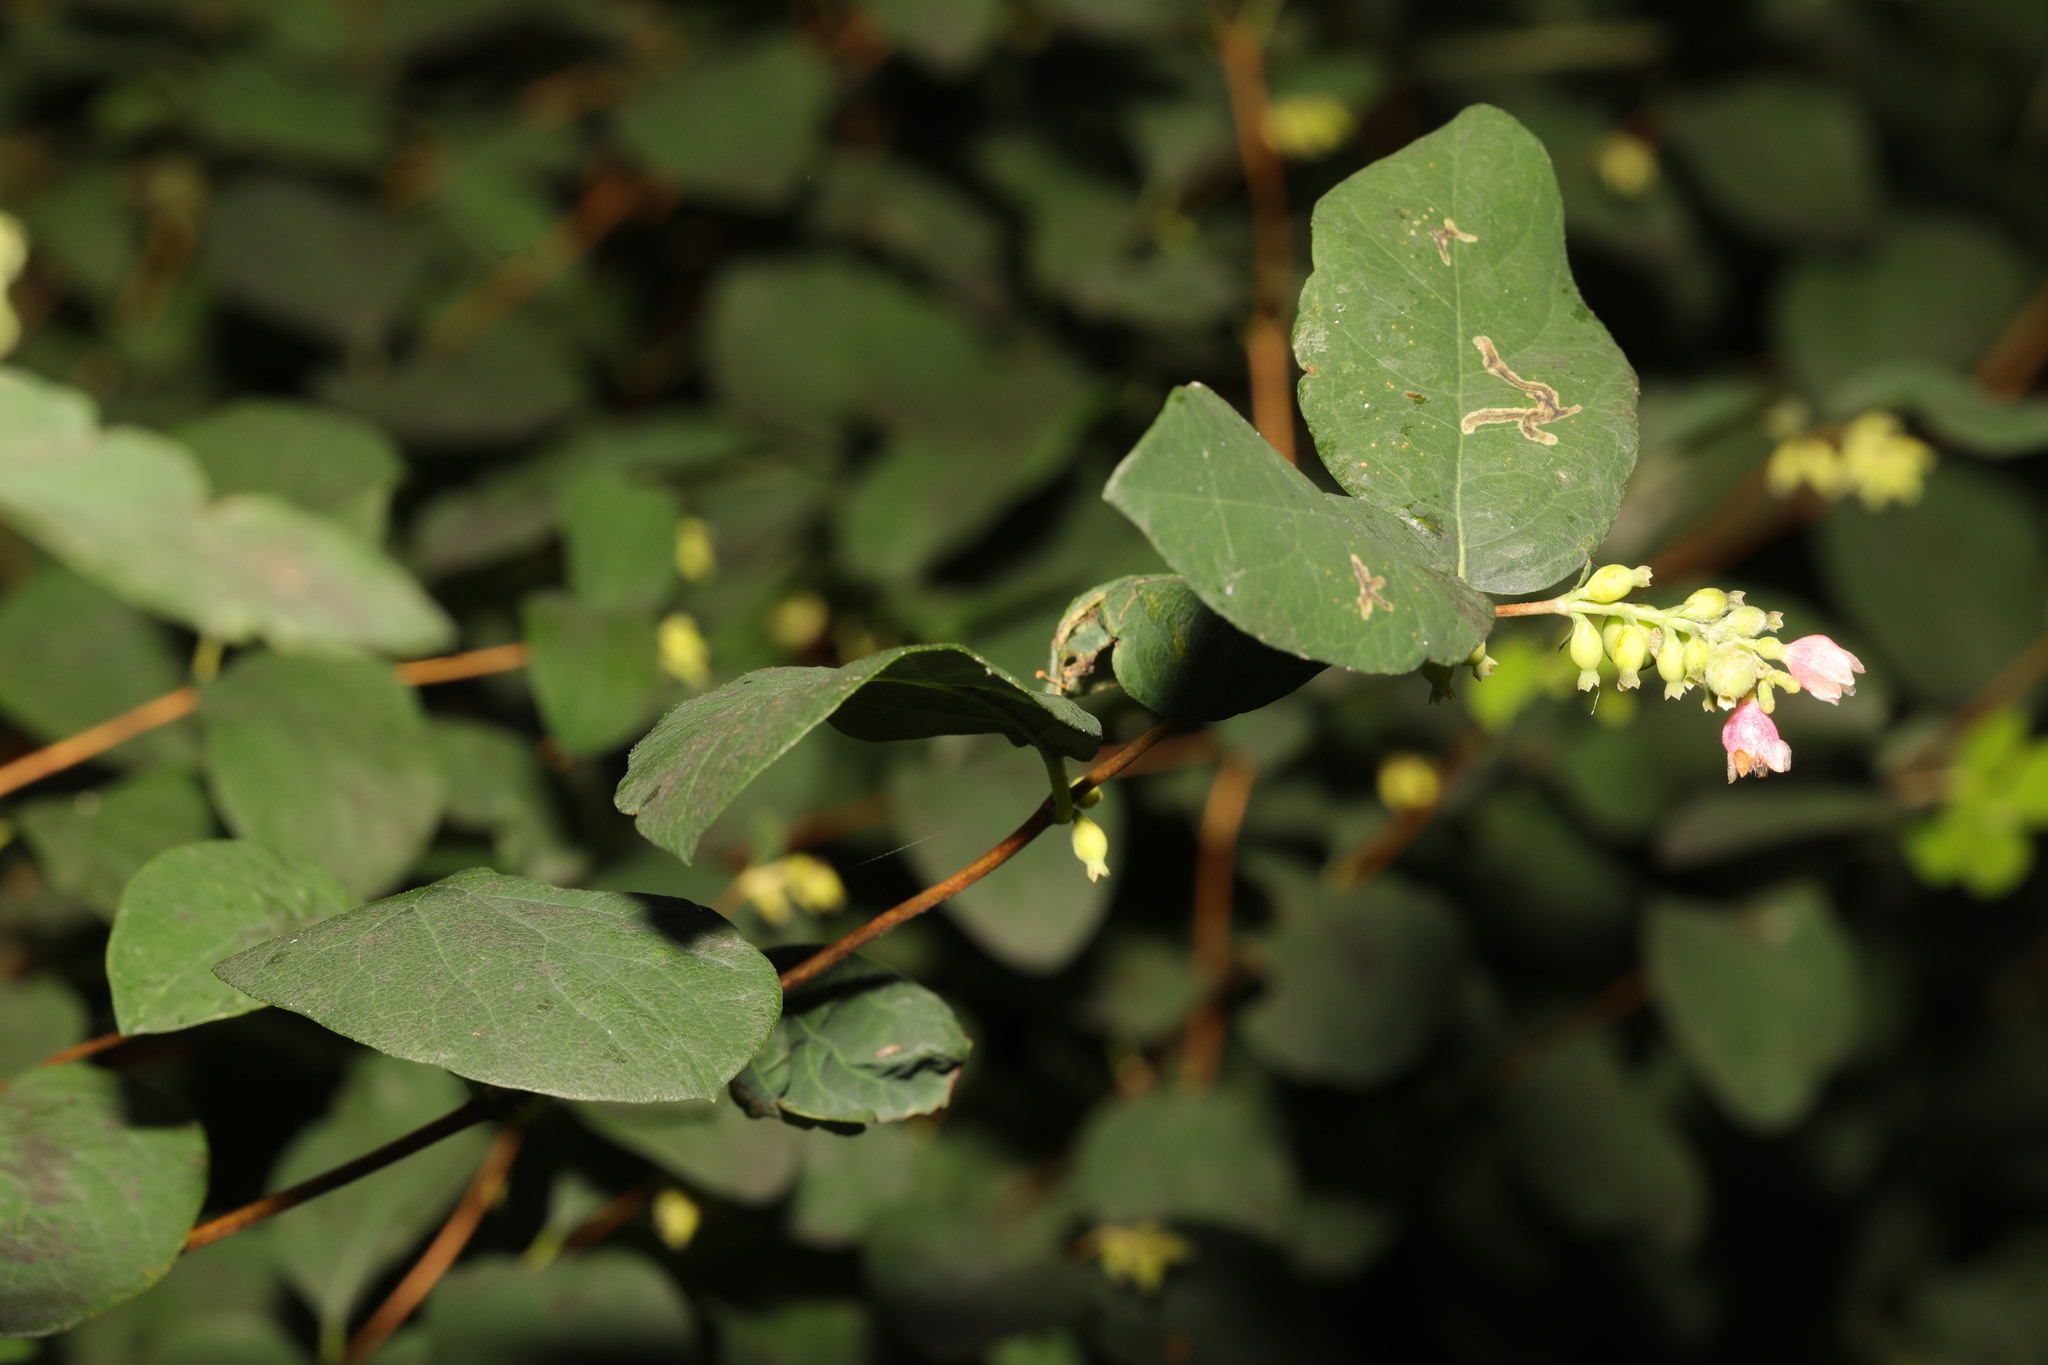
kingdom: Plantae
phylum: Tracheophyta
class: Magnoliopsida
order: Dipsacales
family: Caprifoliaceae
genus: Symphoricarpos
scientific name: Symphoricarpos albus
